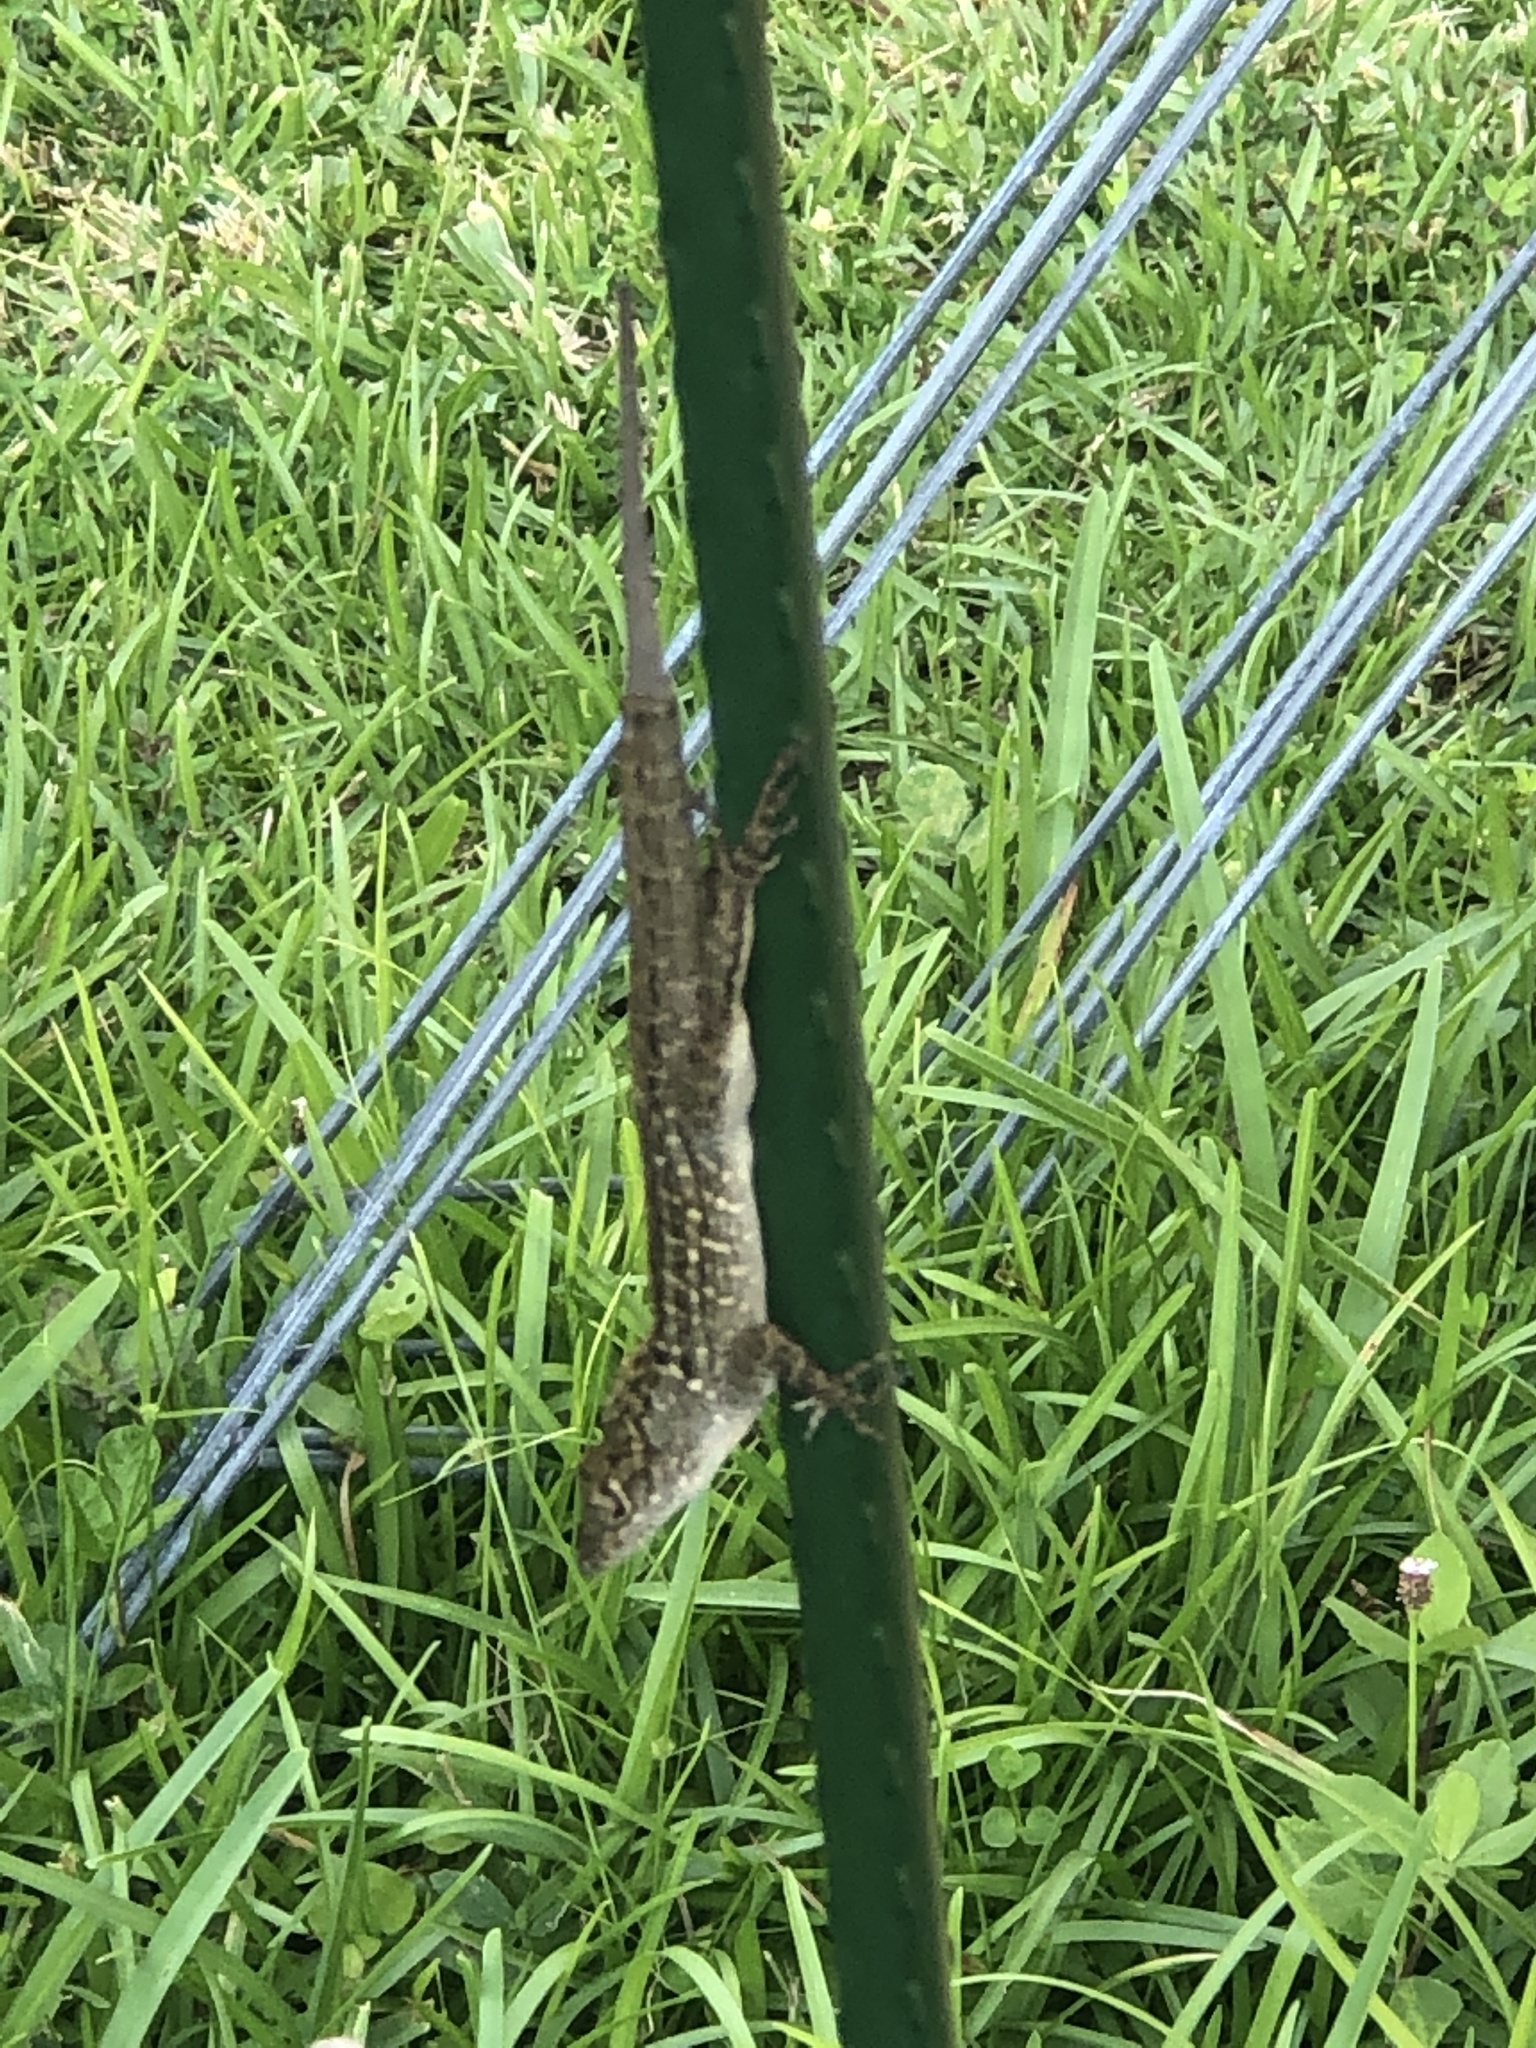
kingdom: Animalia
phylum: Chordata
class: Squamata
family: Dactyloidae
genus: Anolis
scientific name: Anolis sagrei
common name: Brown anole
